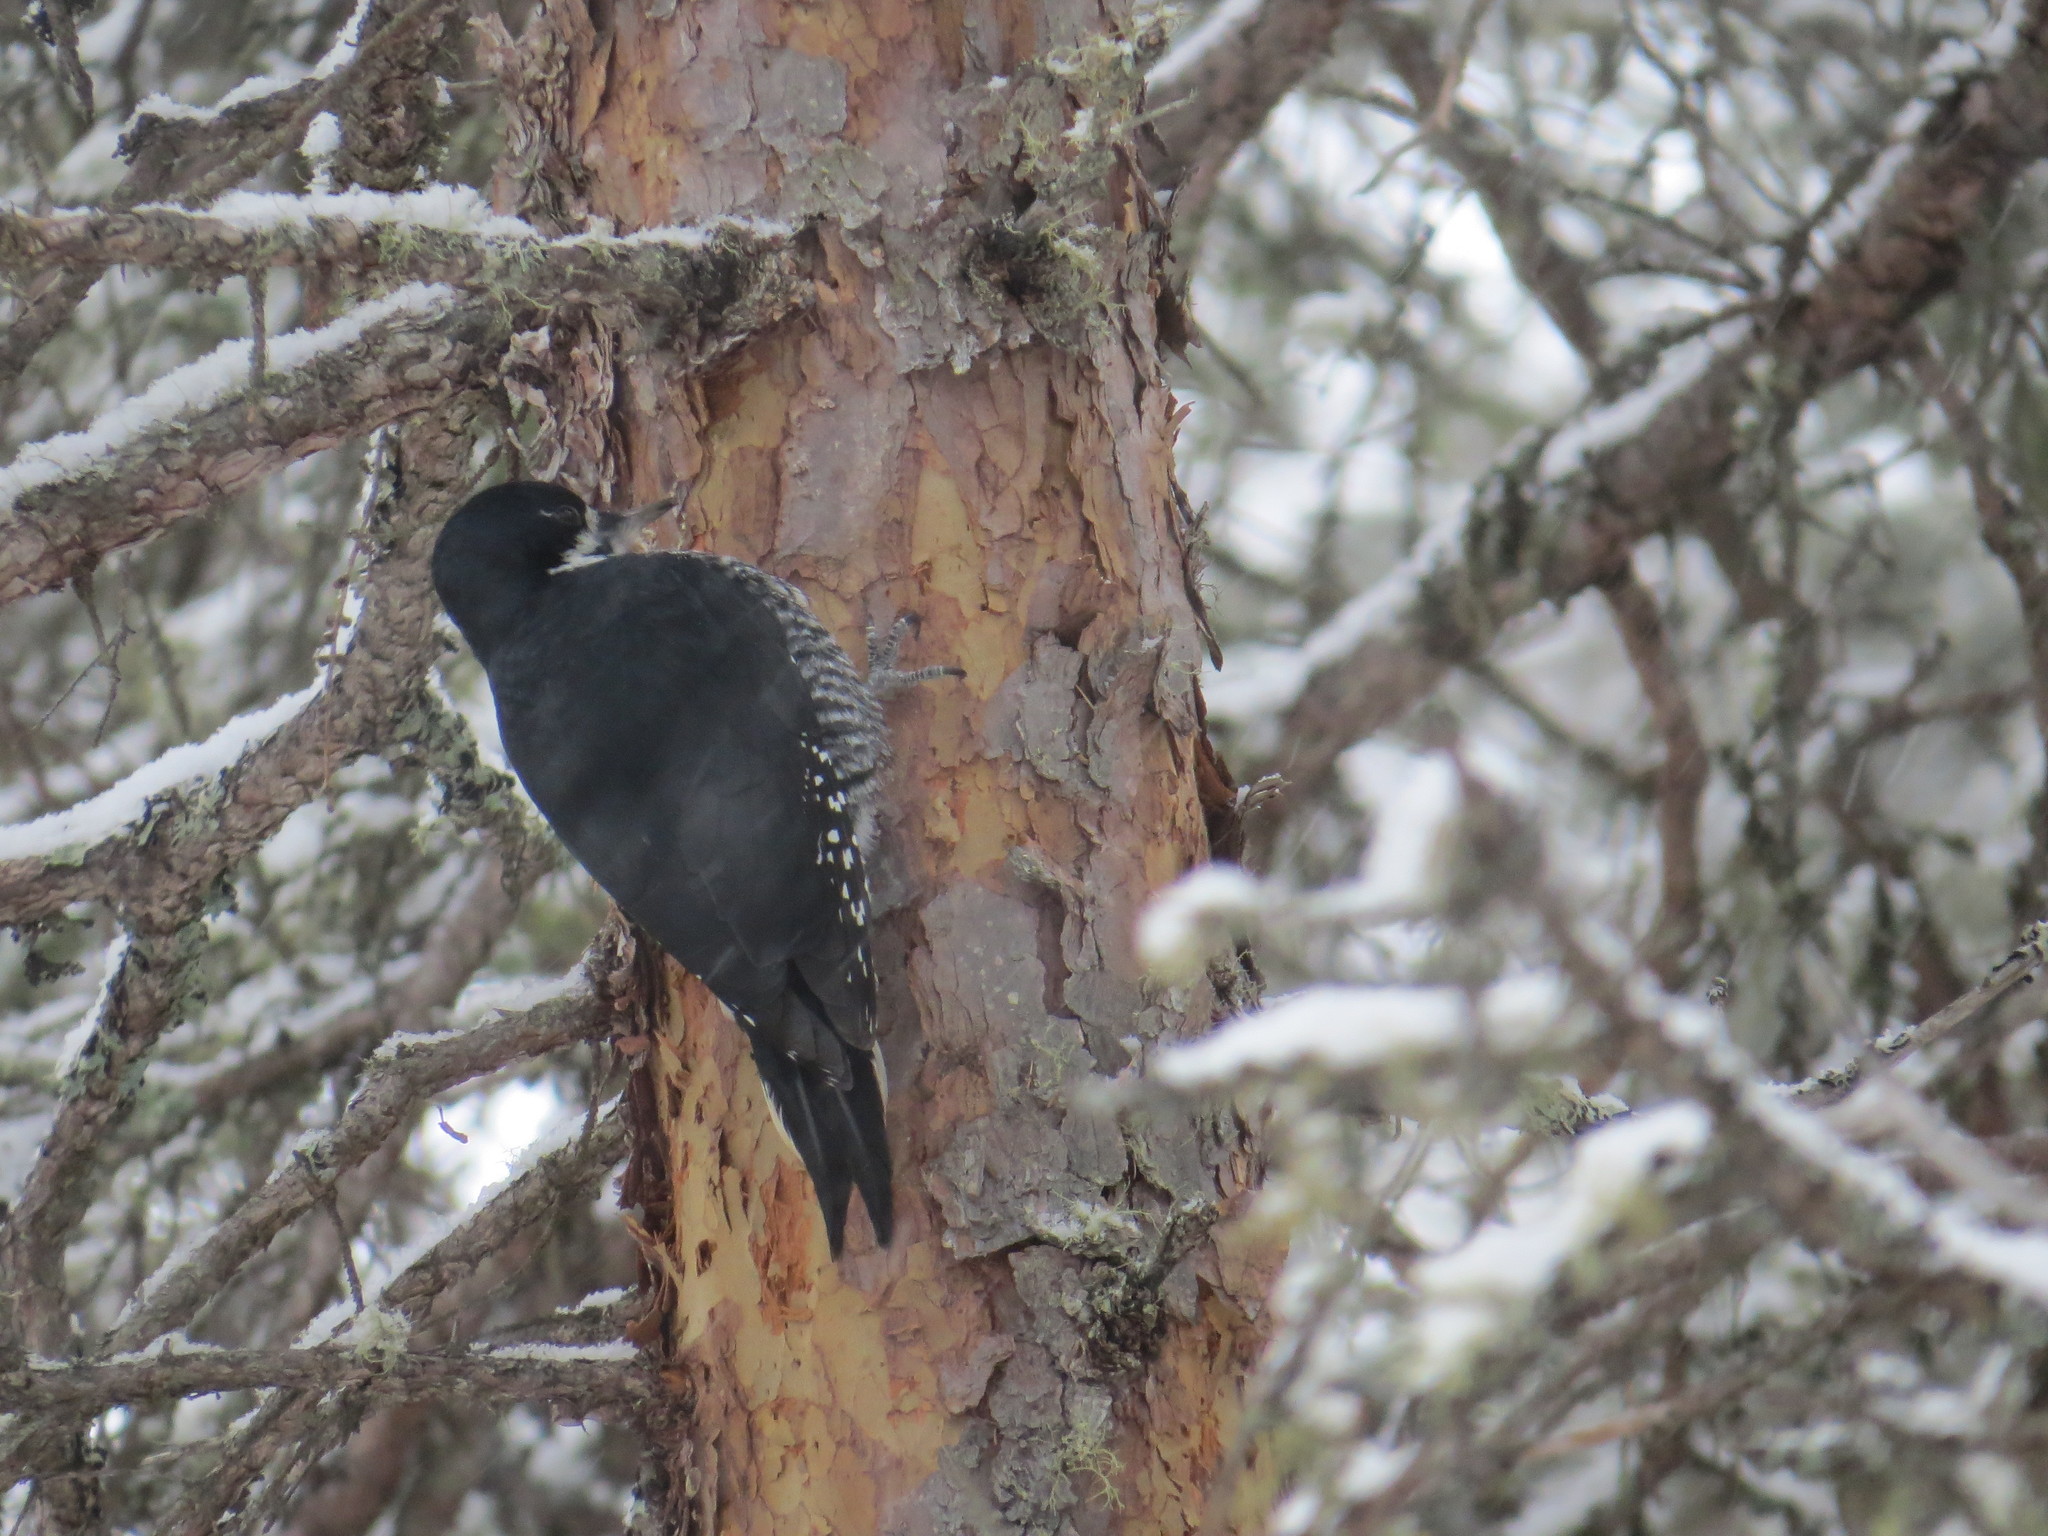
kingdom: Animalia
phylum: Chordata
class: Aves
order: Piciformes
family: Picidae
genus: Picoides
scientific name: Picoides arcticus
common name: Black-backed woodpecker
